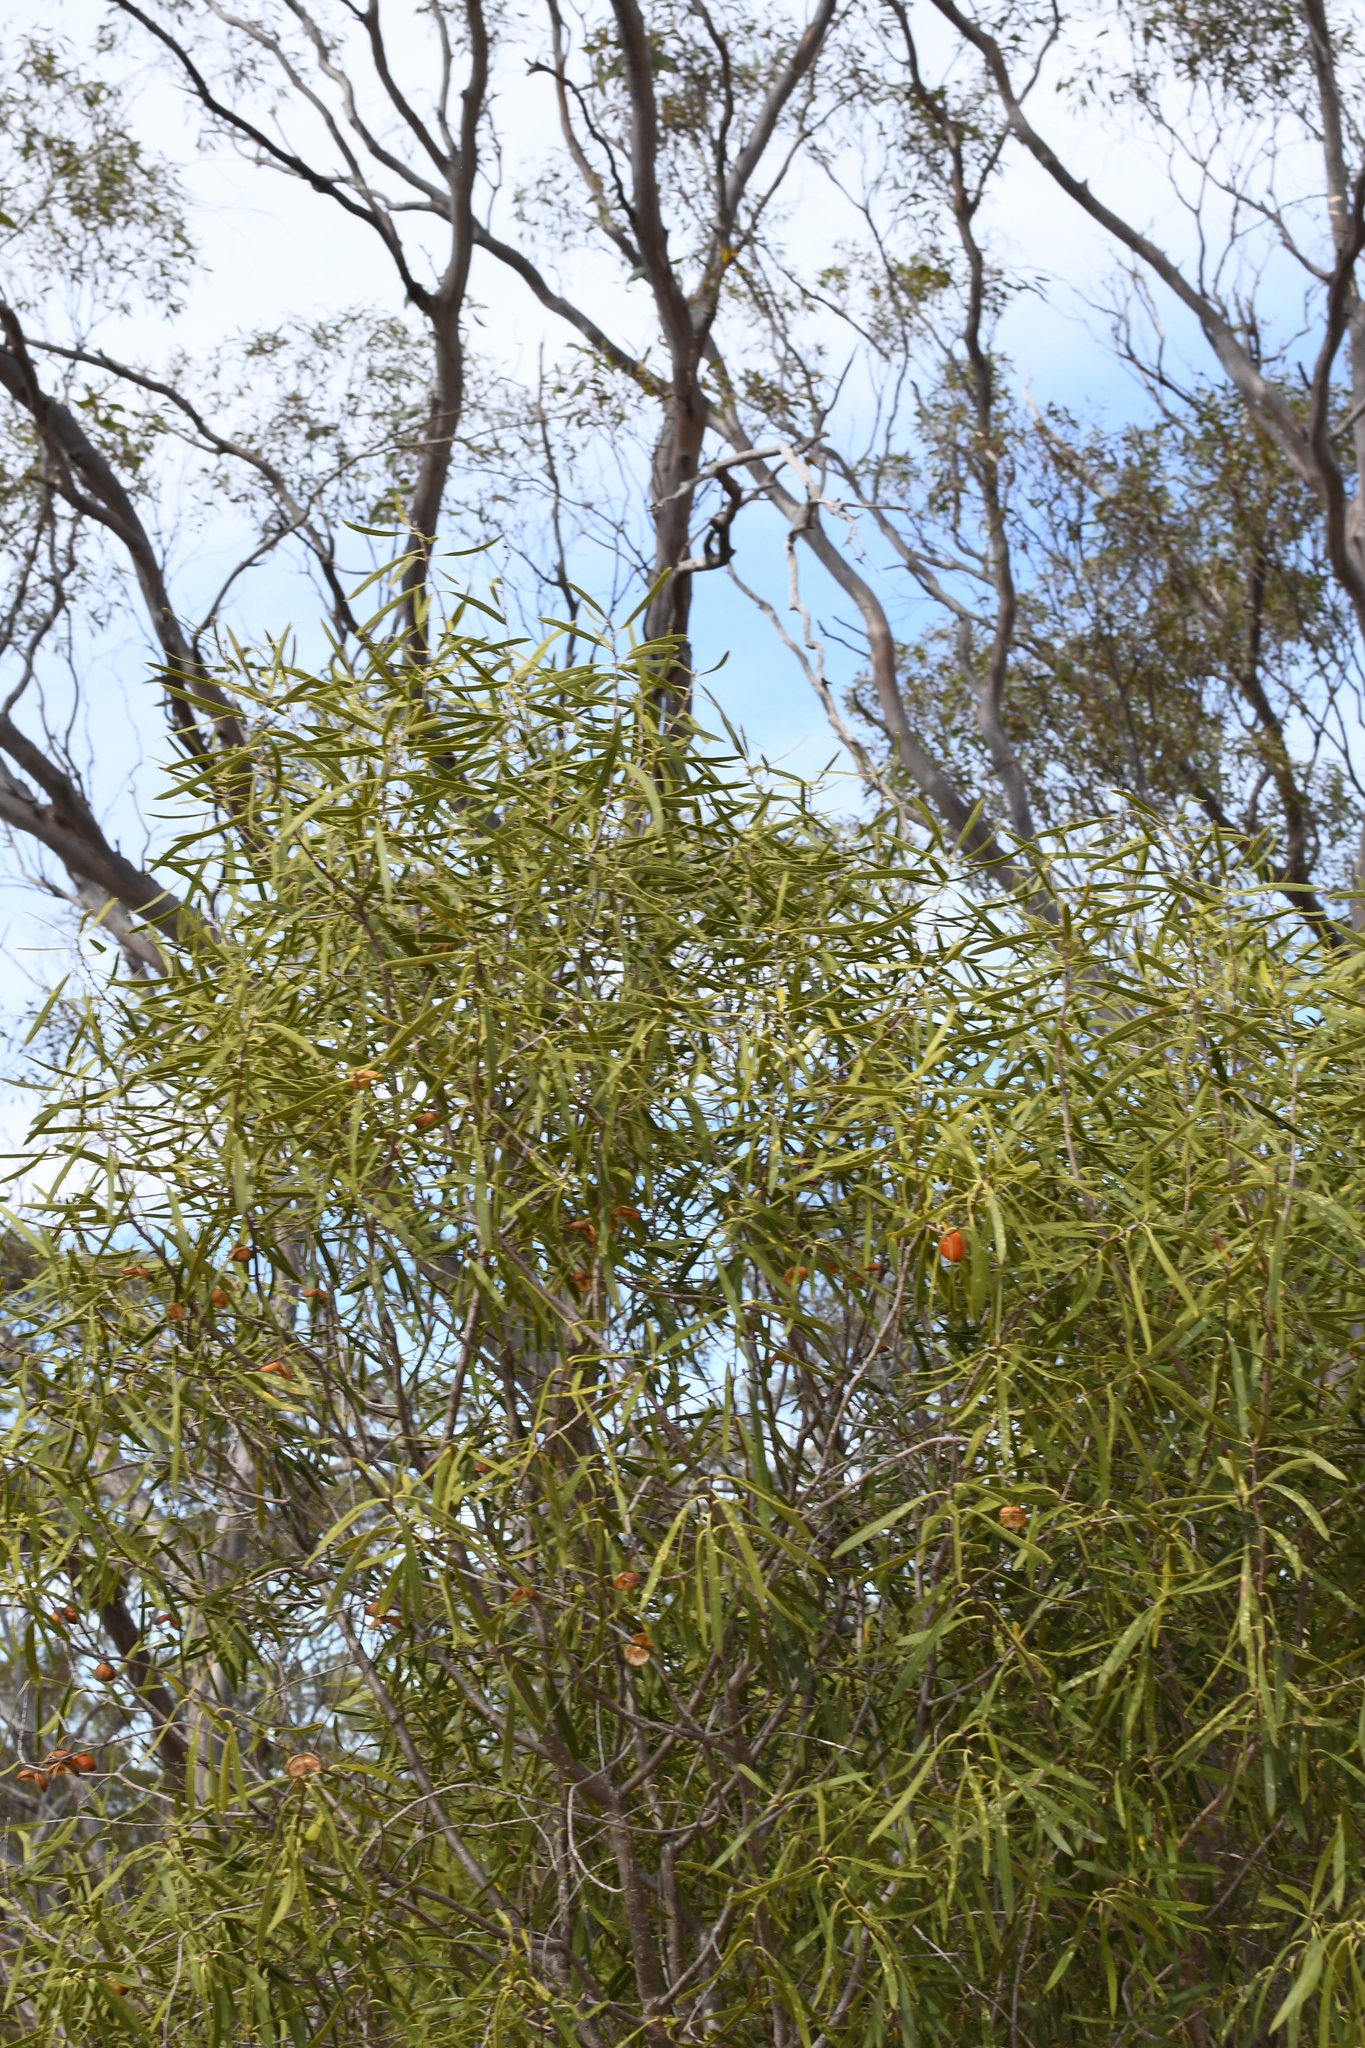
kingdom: Plantae
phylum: Tracheophyta
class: Magnoliopsida
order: Apiales
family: Pittosporaceae
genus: Pittosporum
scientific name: Pittosporum angustifolium
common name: Weeping pittosporum
